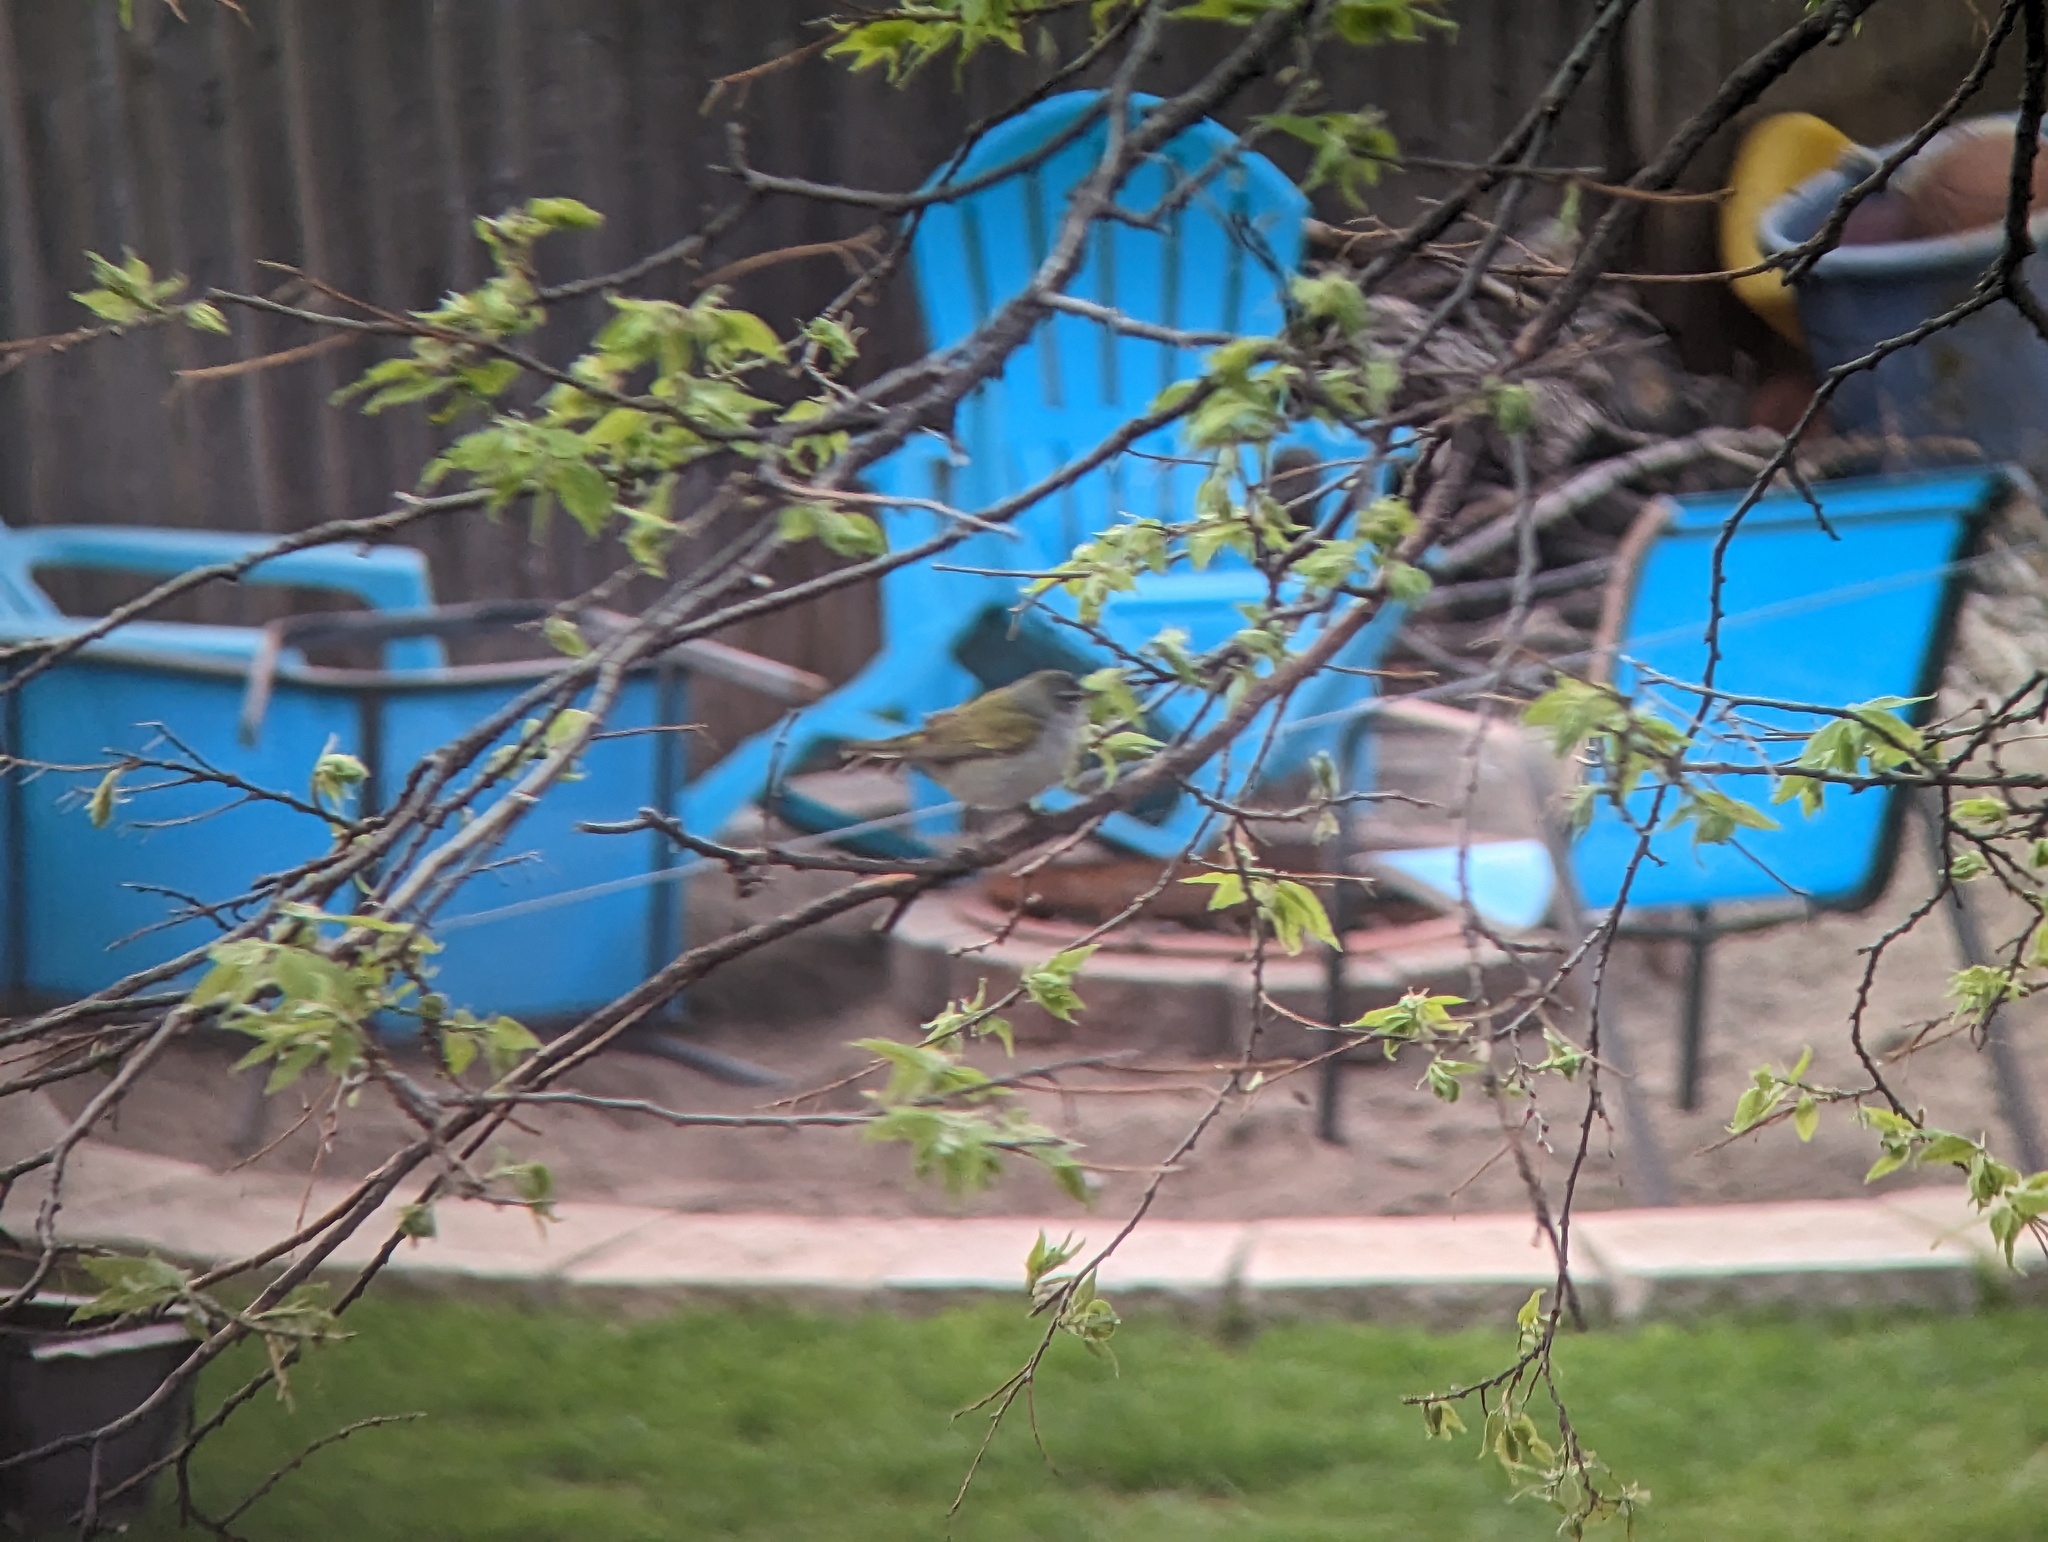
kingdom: Animalia
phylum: Chordata
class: Aves
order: Passeriformes
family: Parulidae
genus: Leiothlypis
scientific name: Leiothlypis peregrina
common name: Tennessee warbler
